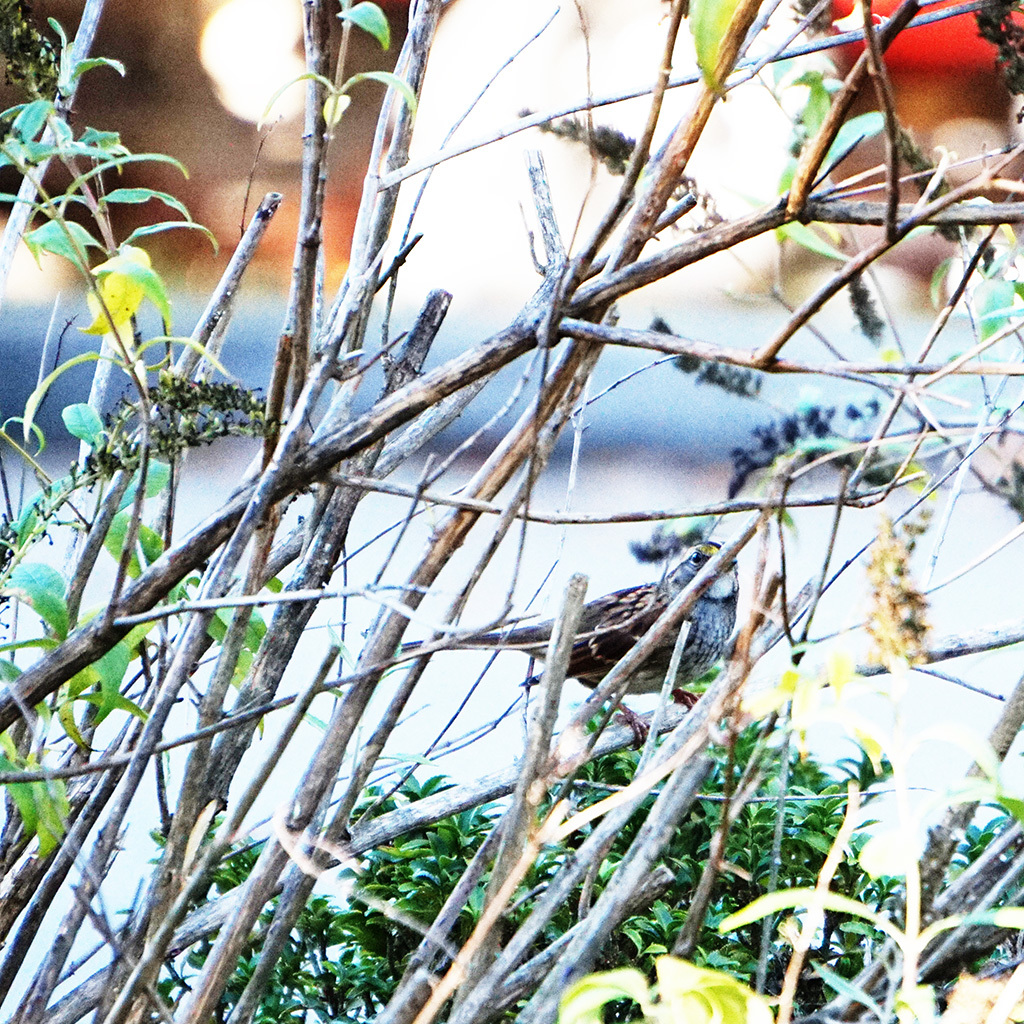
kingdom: Animalia
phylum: Chordata
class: Aves
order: Passeriformes
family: Passerellidae
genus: Zonotrichia
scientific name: Zonotrichia albicollis
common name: White-throated sparrow
